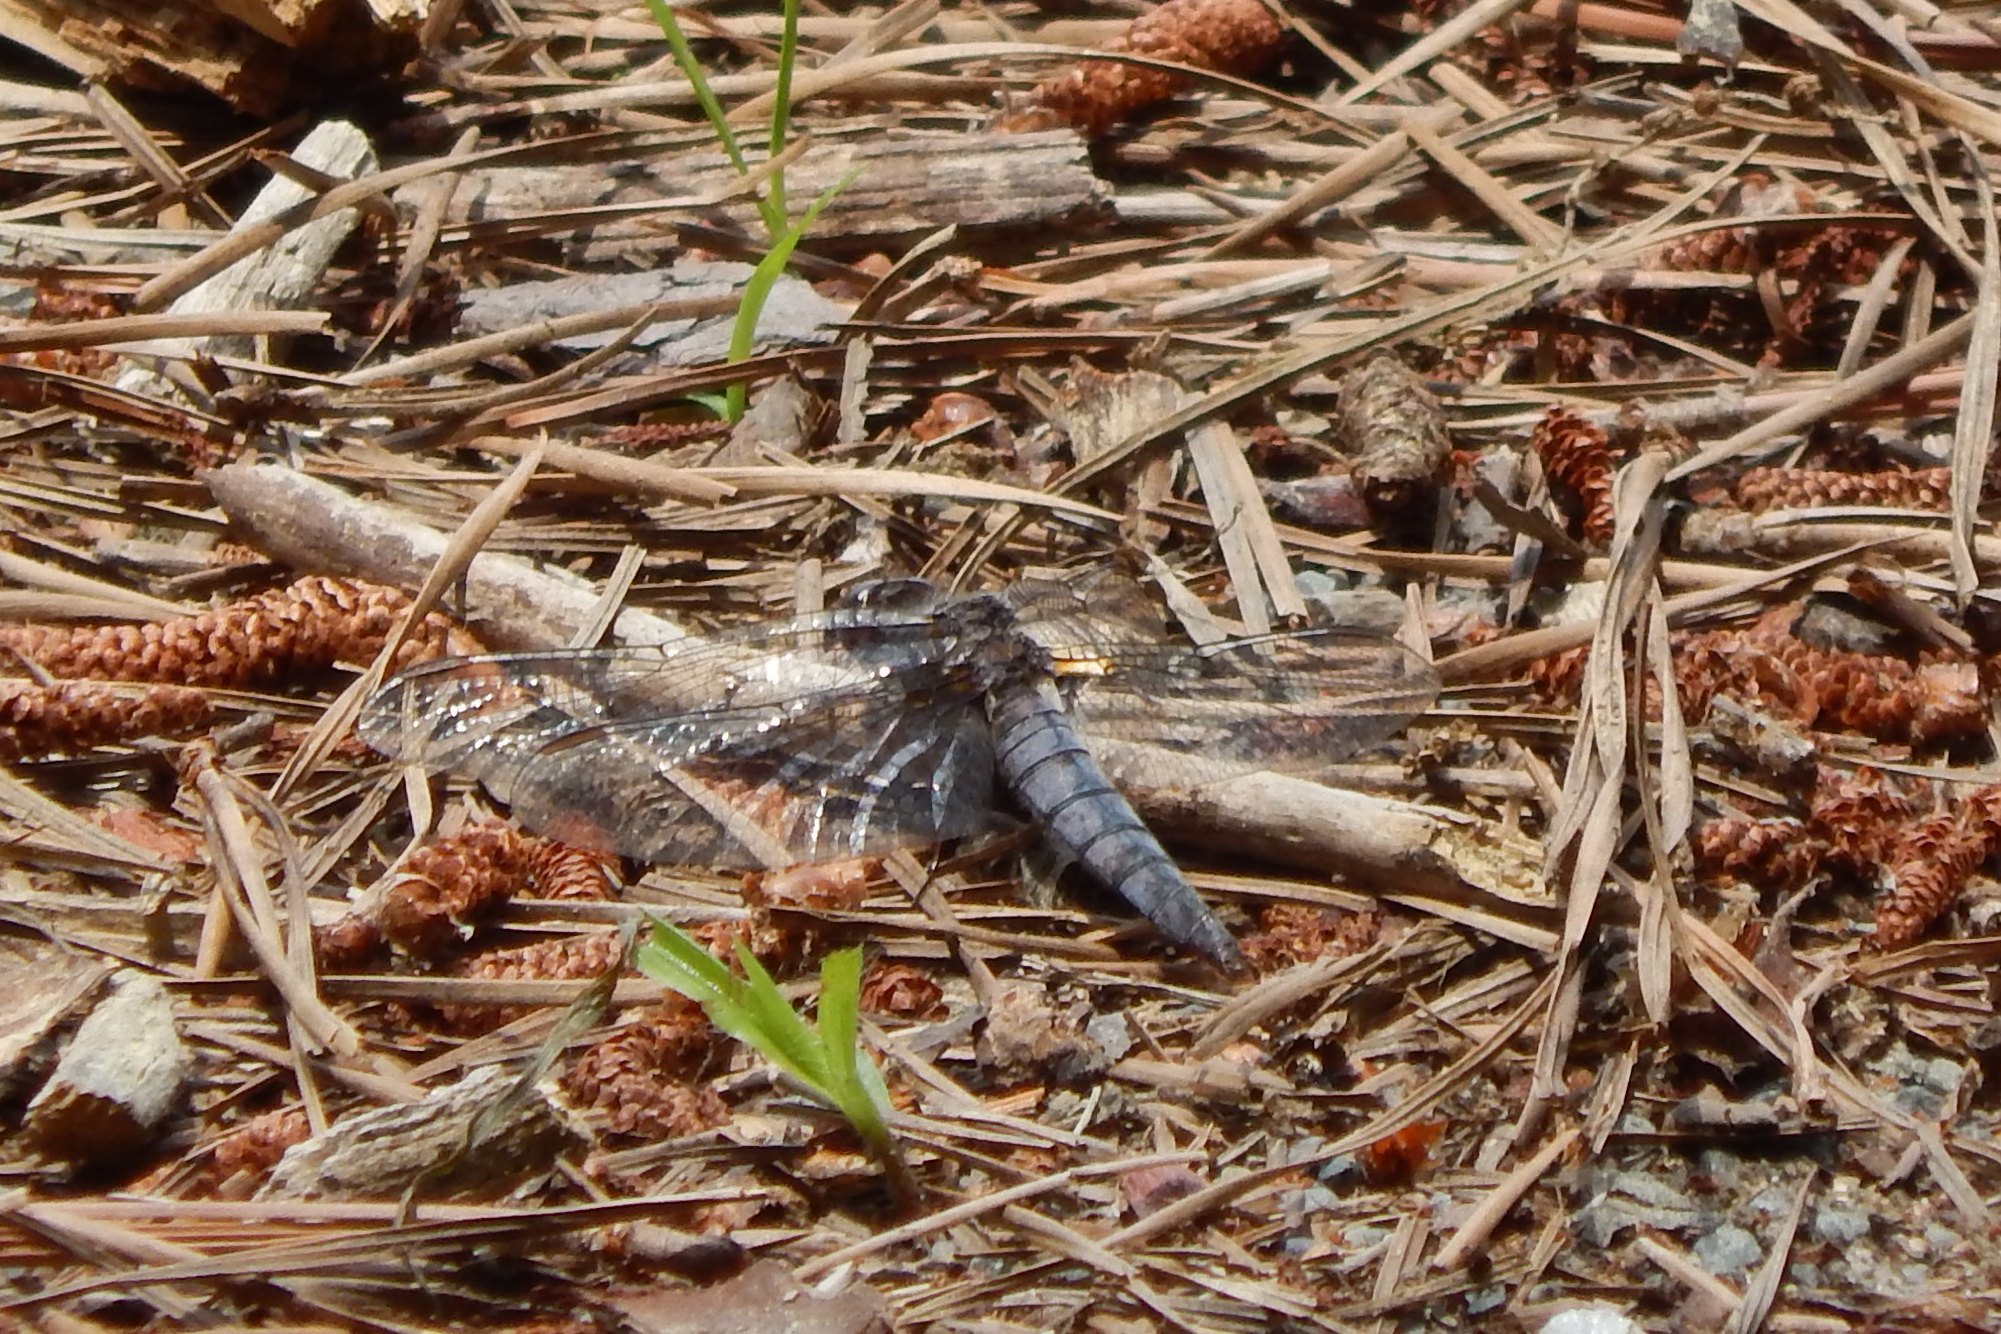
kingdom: Animalia
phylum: Arthropoda
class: Insecta
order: Odonata
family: Libellulidae
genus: Ladona
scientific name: Ladona deplanata
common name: Blue corporal
